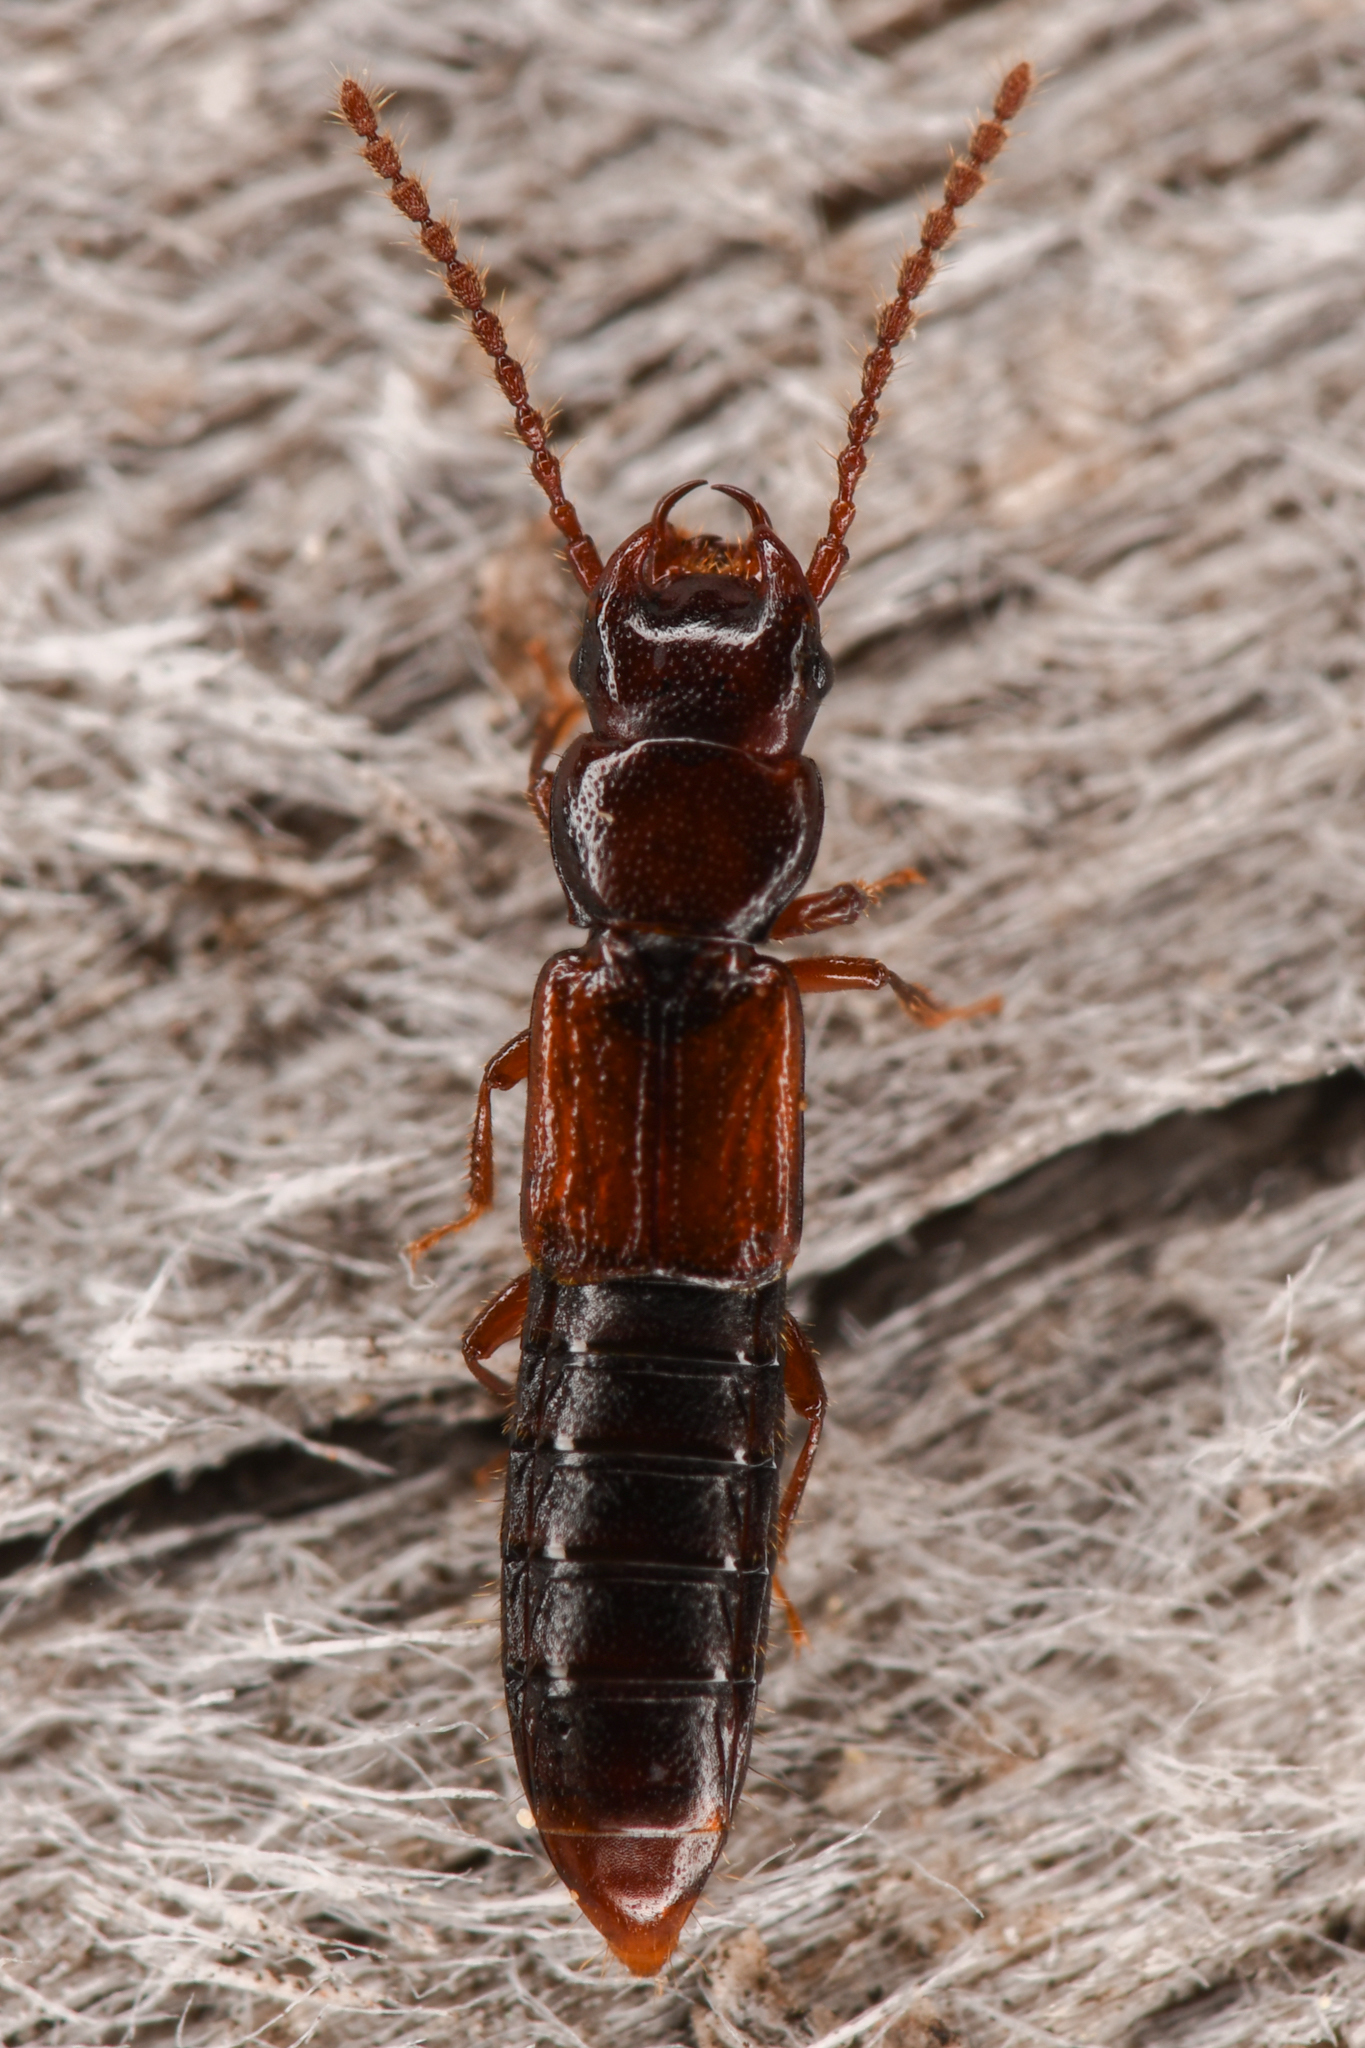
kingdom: Animalia
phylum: Arthropoda
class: Insecta
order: Coleoptera
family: Staphylinidae
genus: Siagonium
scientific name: Siagonium stacesmithi
